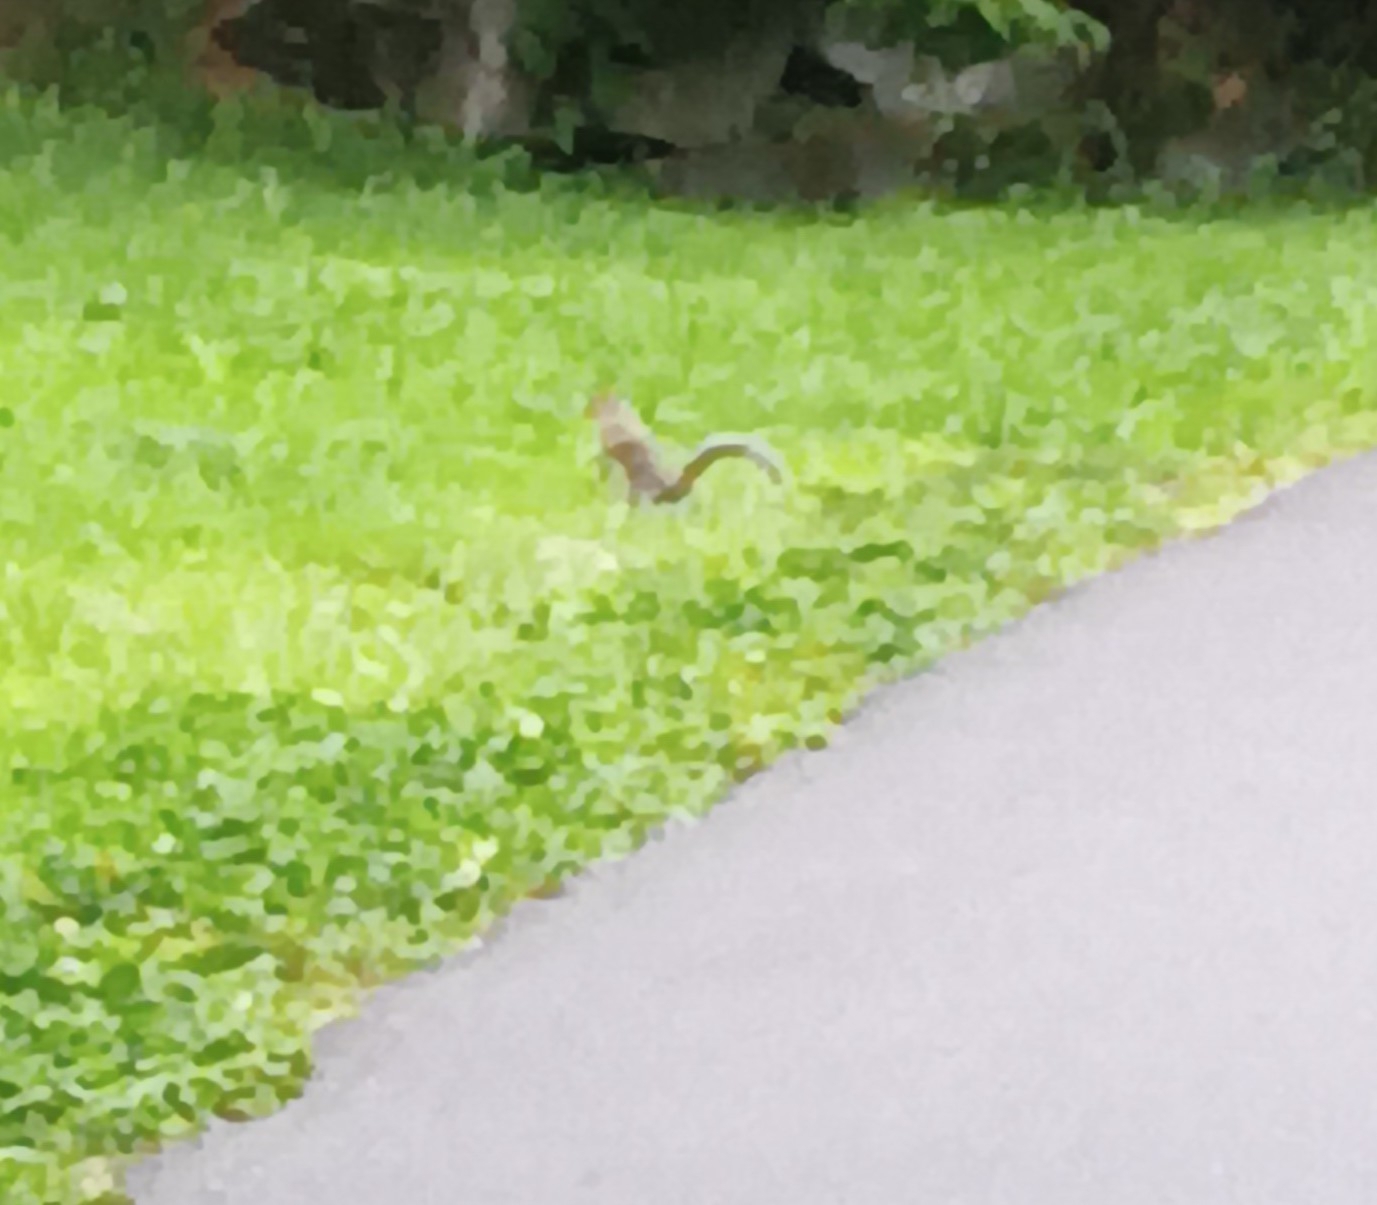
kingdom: Animalia
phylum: Chordata
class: Mammalia
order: Rodentia
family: Sciuridae
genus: Sciurus
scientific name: Sciurus carolinensis
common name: Eastern gray squirrel
